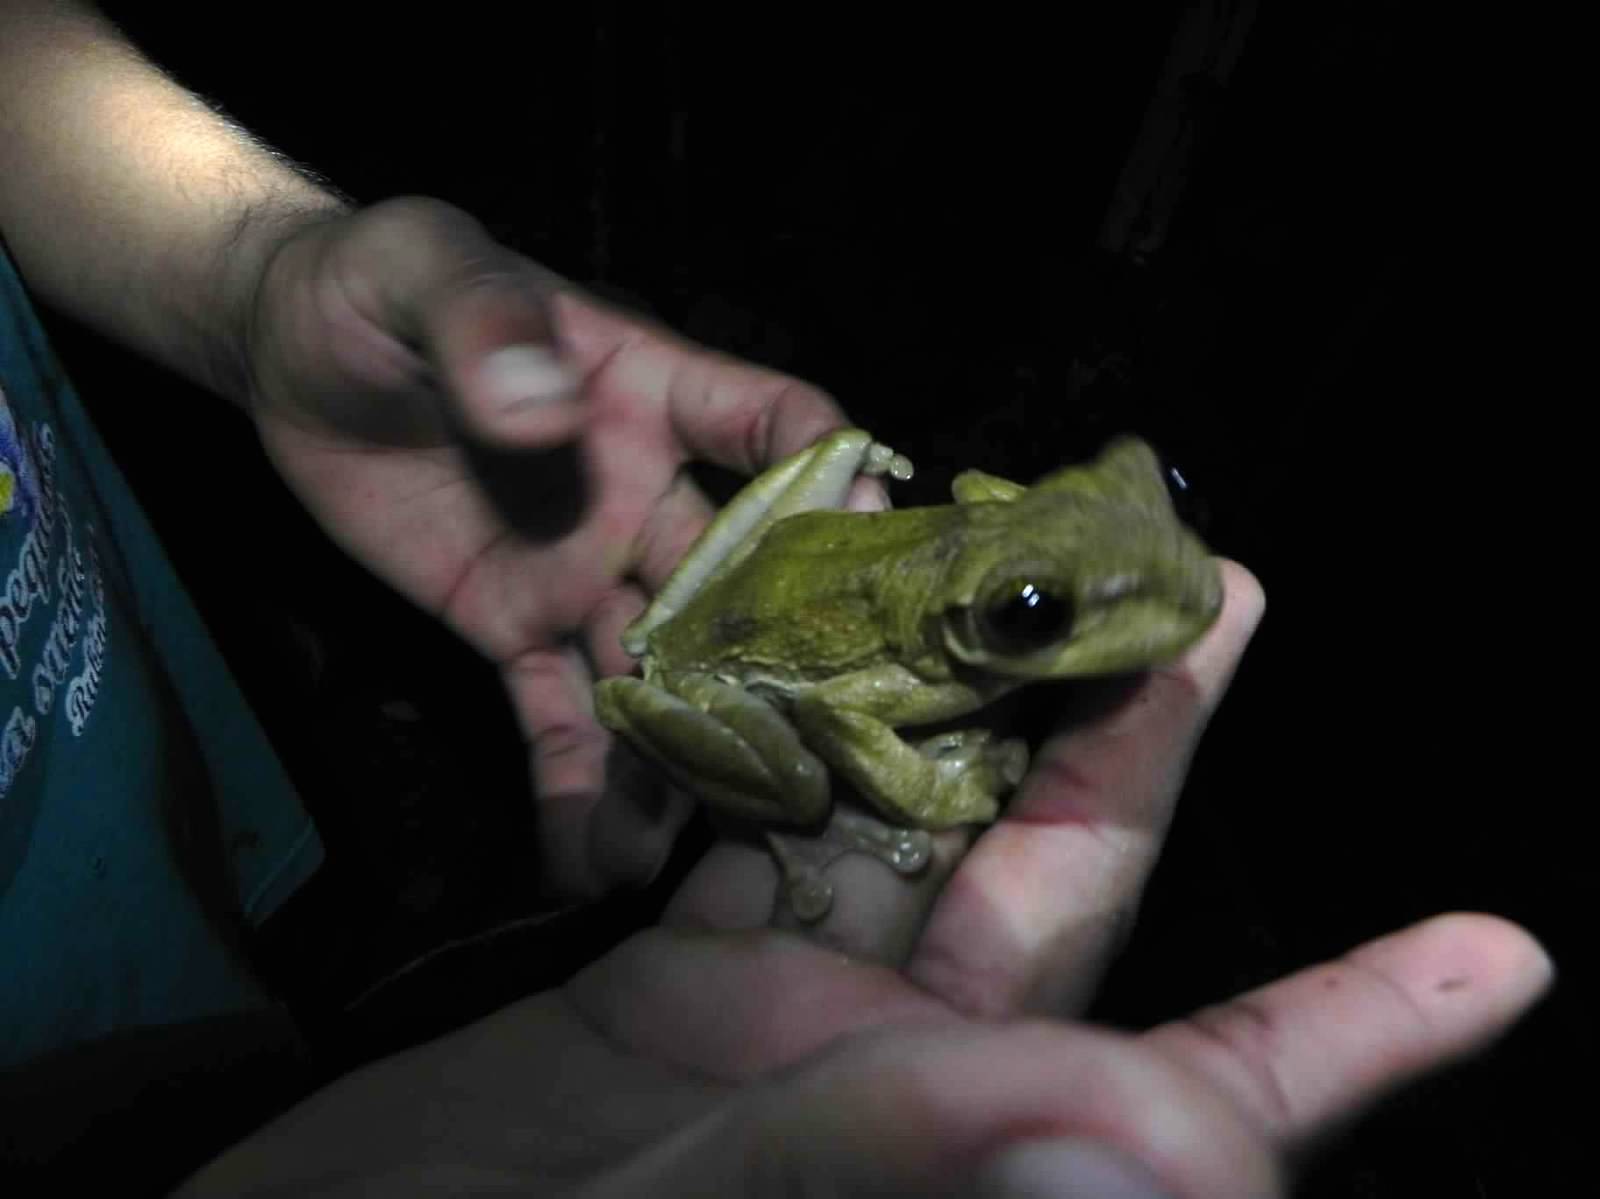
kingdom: Animalia
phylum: Chordata
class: Amphibia
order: Anura
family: Hylidae
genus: Osteocephalus
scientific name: Osteocephalus taurinus
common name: Manaus slender-legged treefrog
